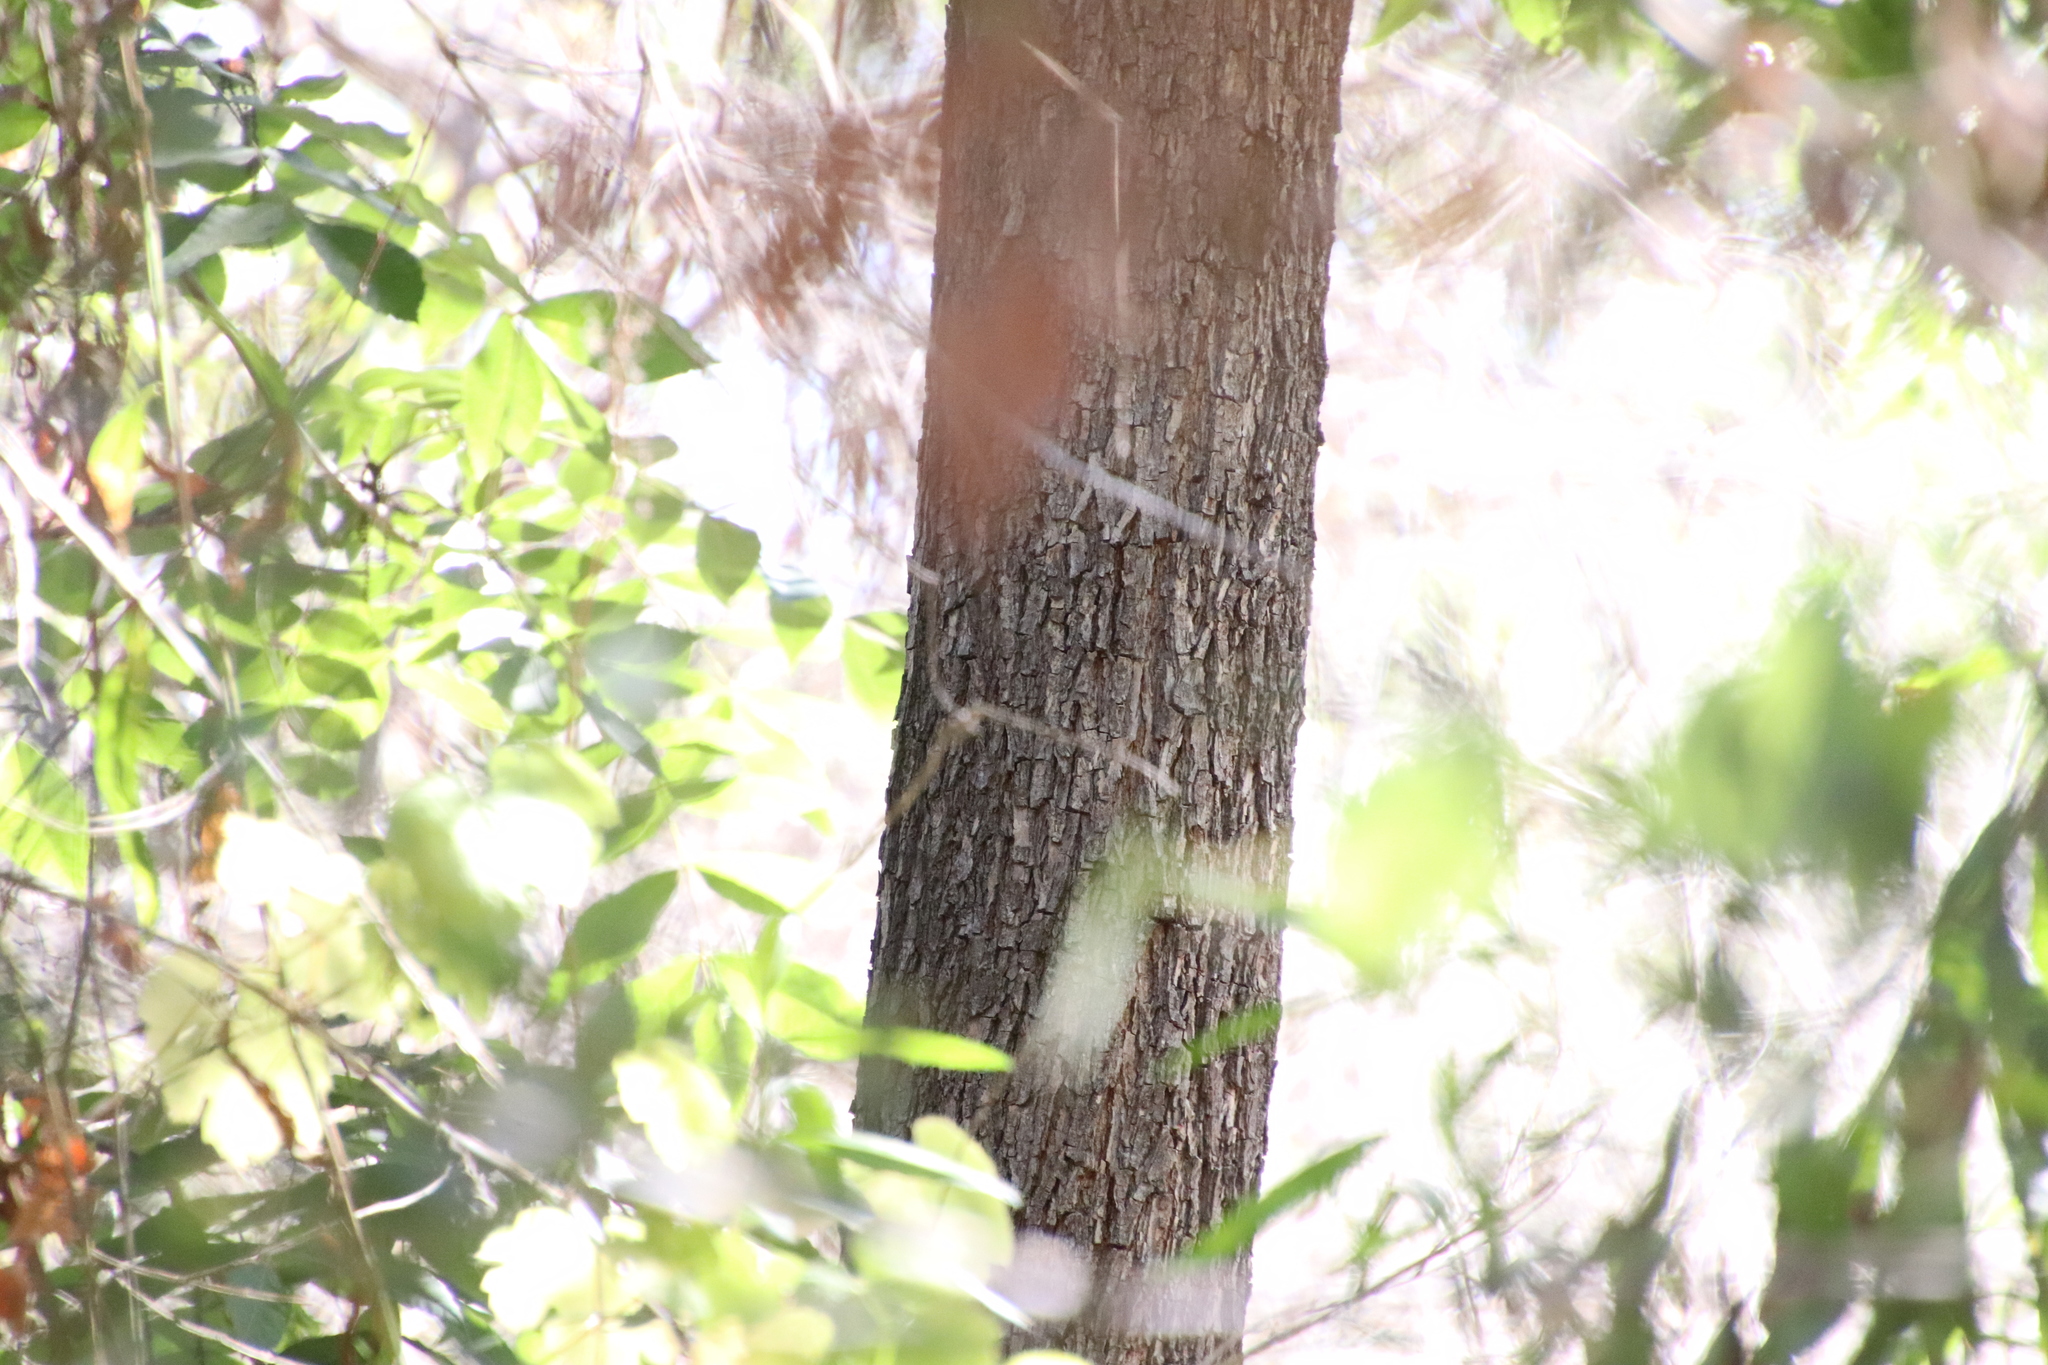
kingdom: Plantae
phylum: Tracheophyta
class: Magnoliopsida
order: Fagales
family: Juglandaceae
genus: Carya
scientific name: Carya illinoinensis
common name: Pecan
